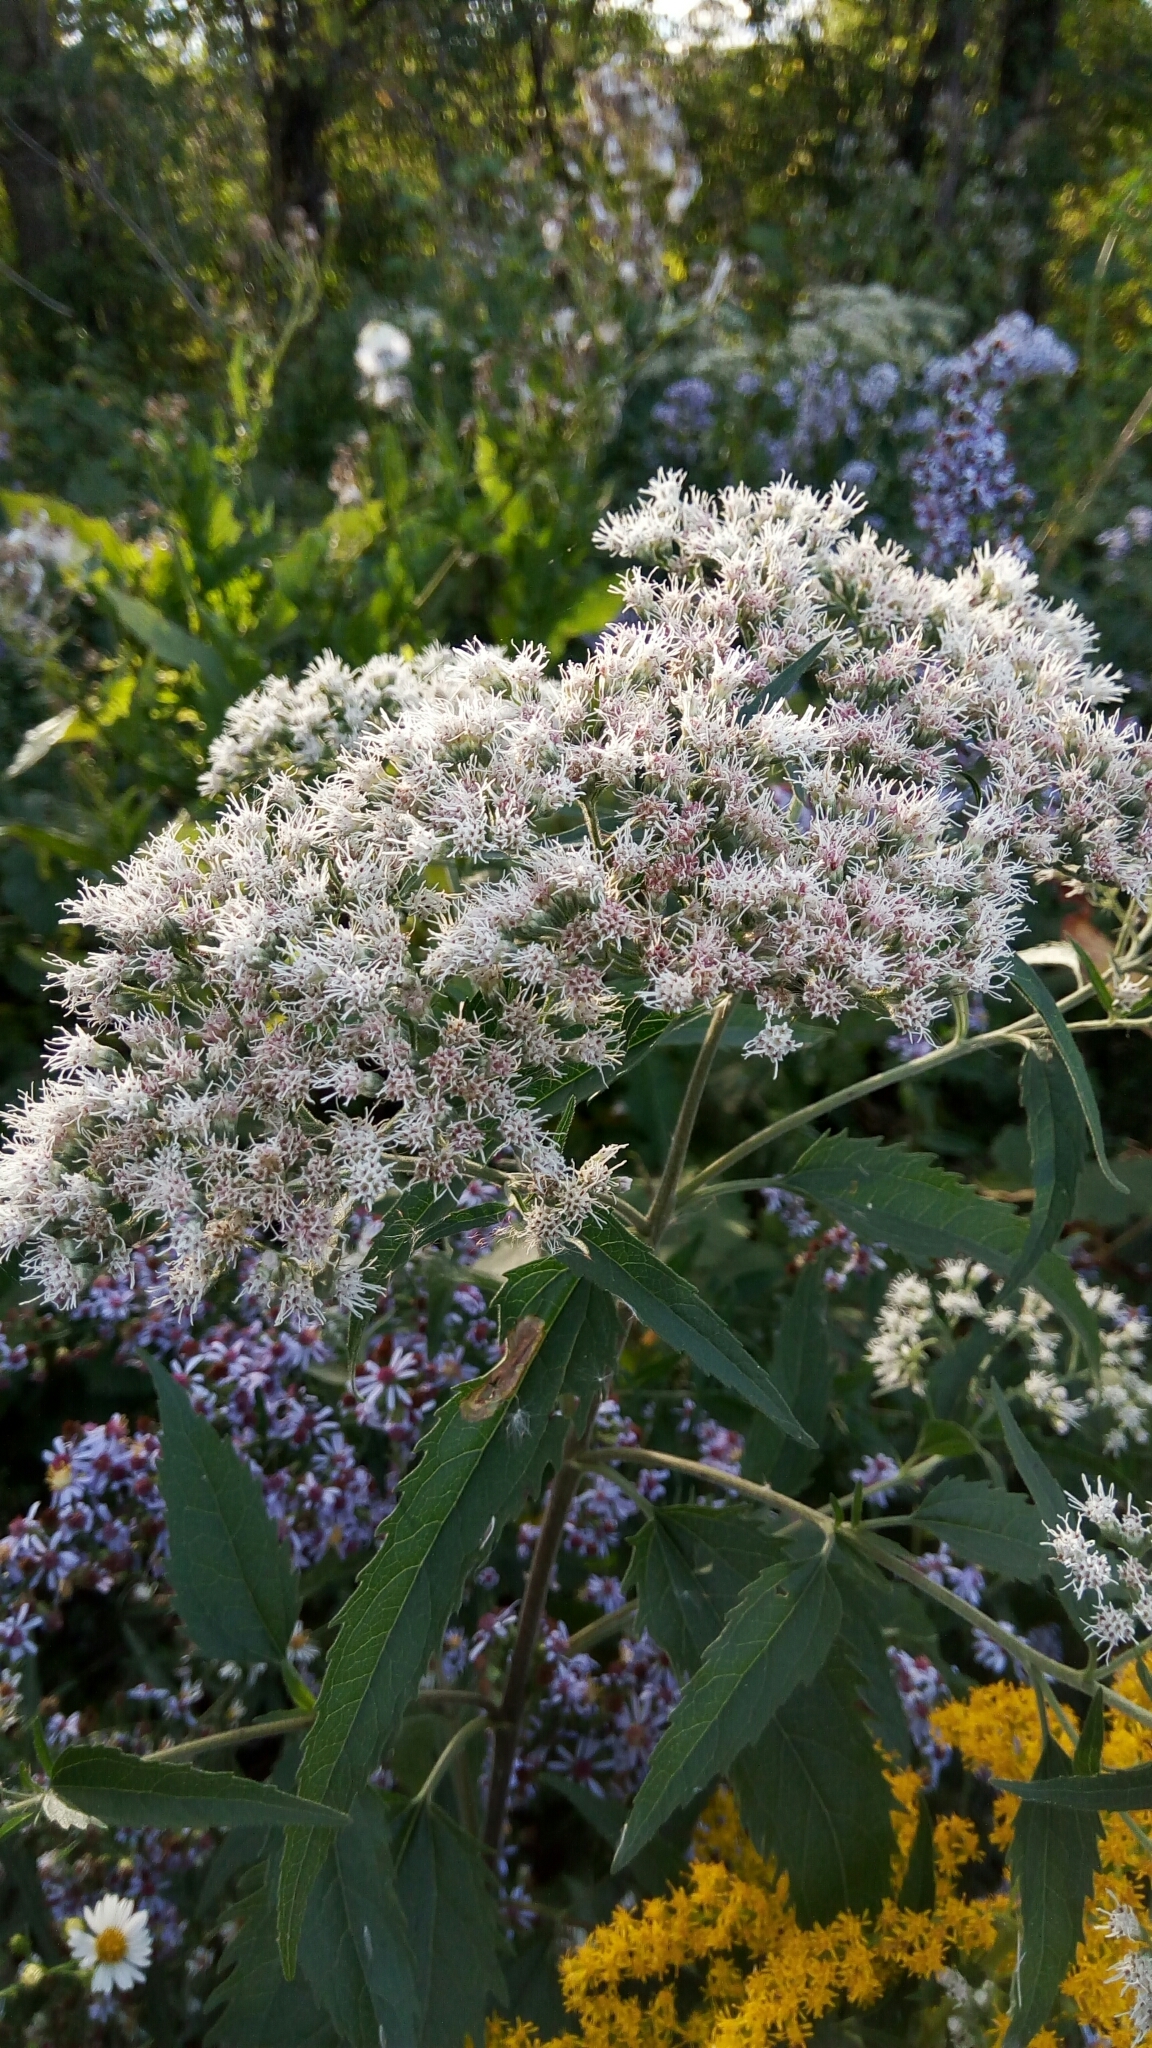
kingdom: Plantae
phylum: Tracheophyta
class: Magnoliopsida
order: Asterales
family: Asteraceae
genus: Eupatorium
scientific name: Eupatorium serotinum
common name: Late boneset
